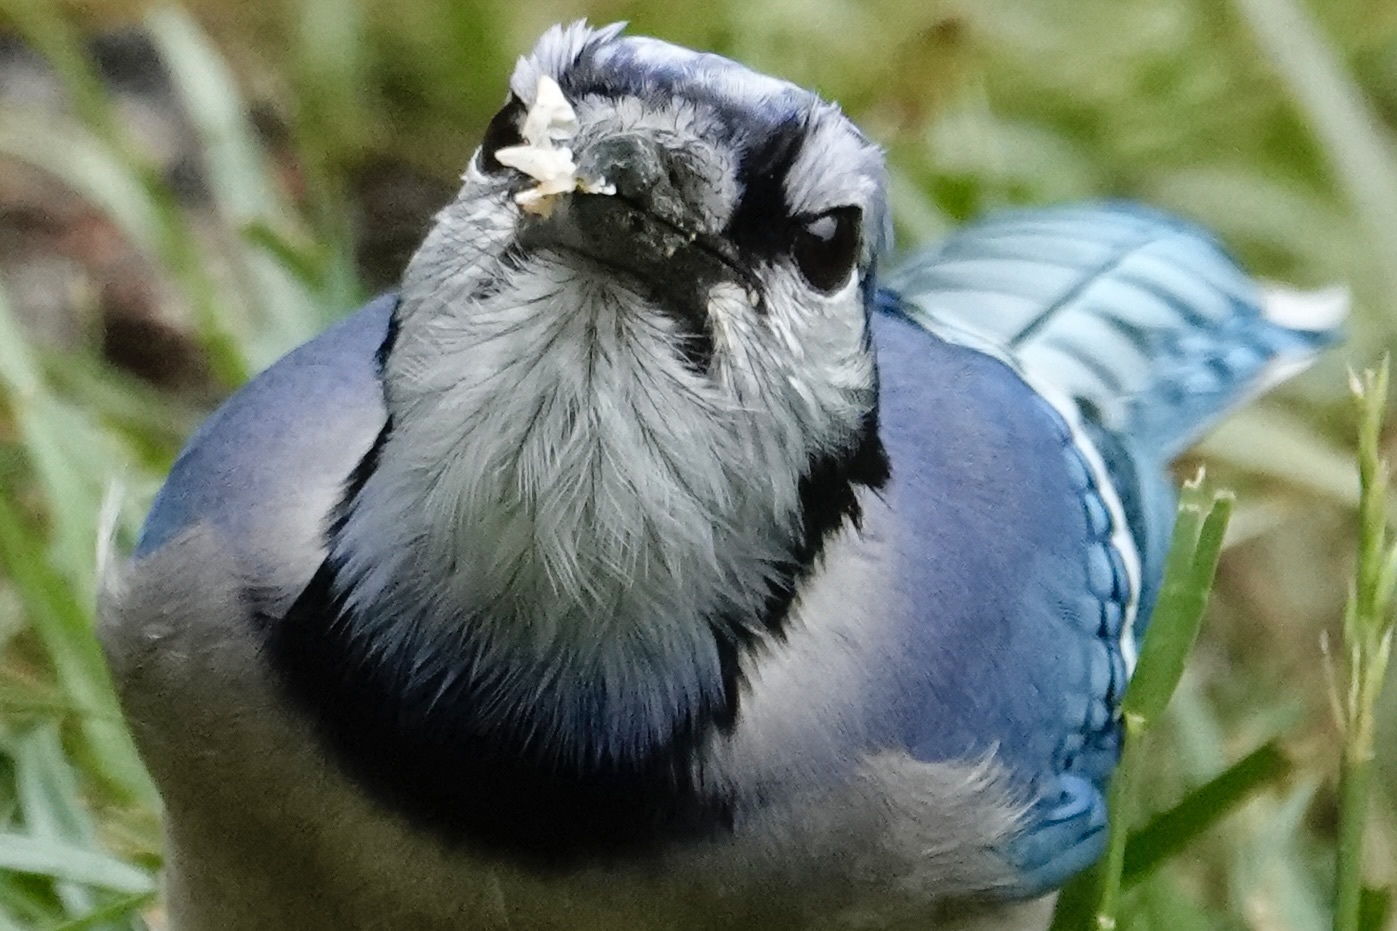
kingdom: Animalia
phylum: Chordata
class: Aves
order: Passeriformes
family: Corvidae
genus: Cyanocitta
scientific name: Cyanocitta cristata
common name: Blue jay
